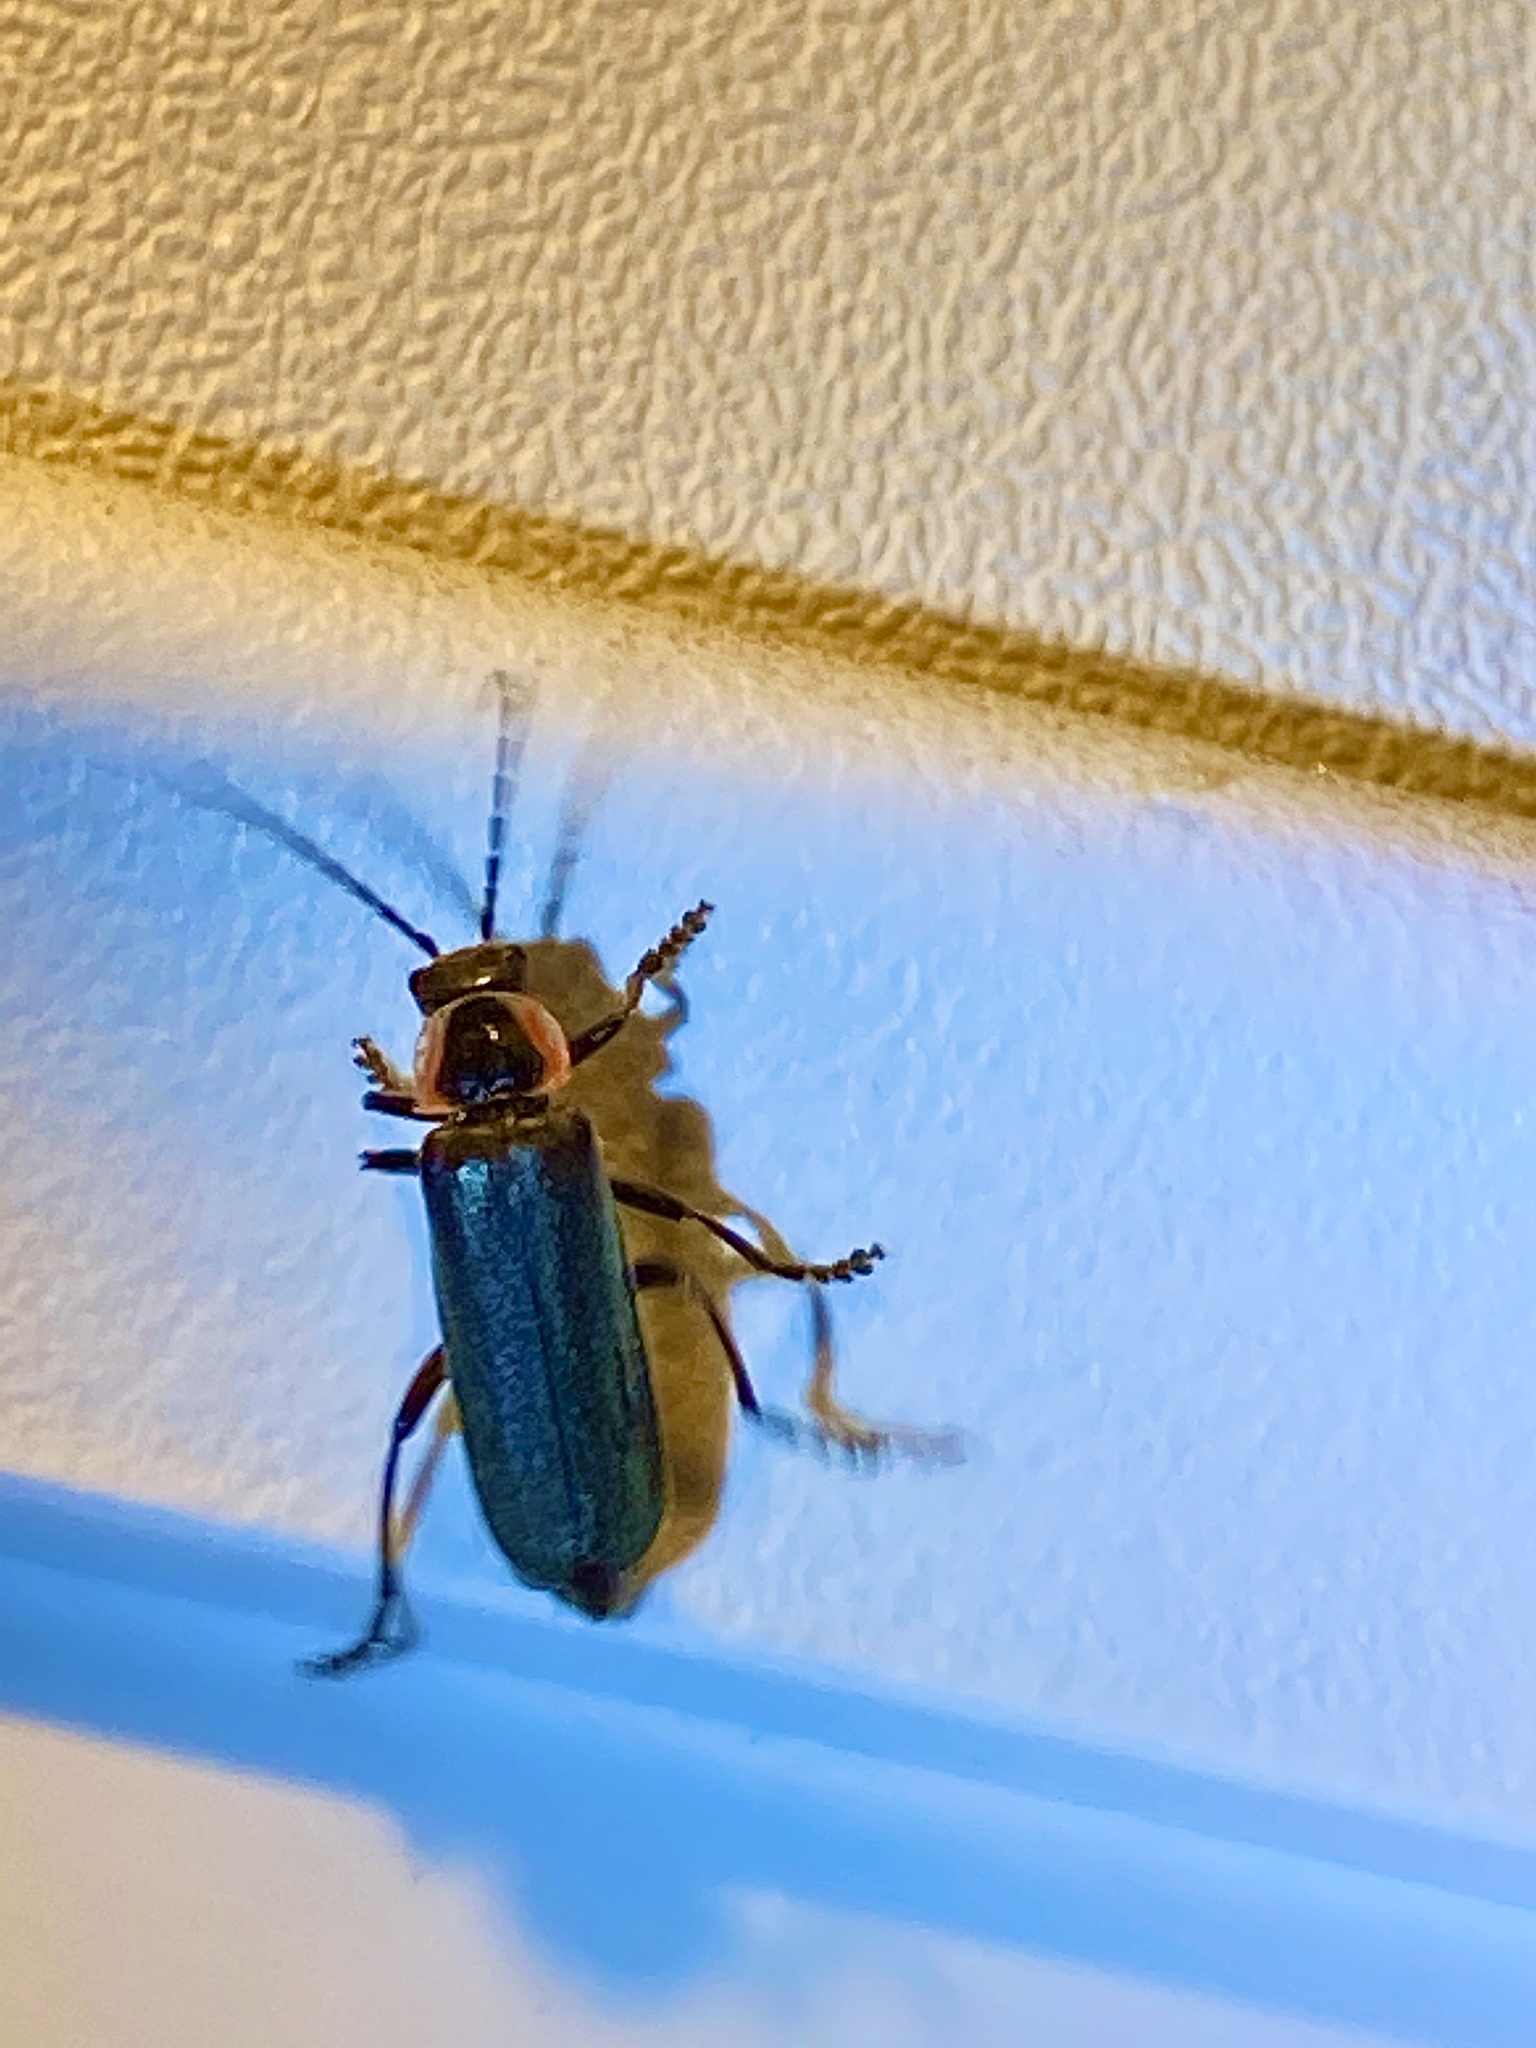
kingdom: Animalia
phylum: Arthropoda
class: Insecta
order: Coleoptera
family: Cantharidae
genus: Rhaxonycha
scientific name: Rhaxonycha carolina
